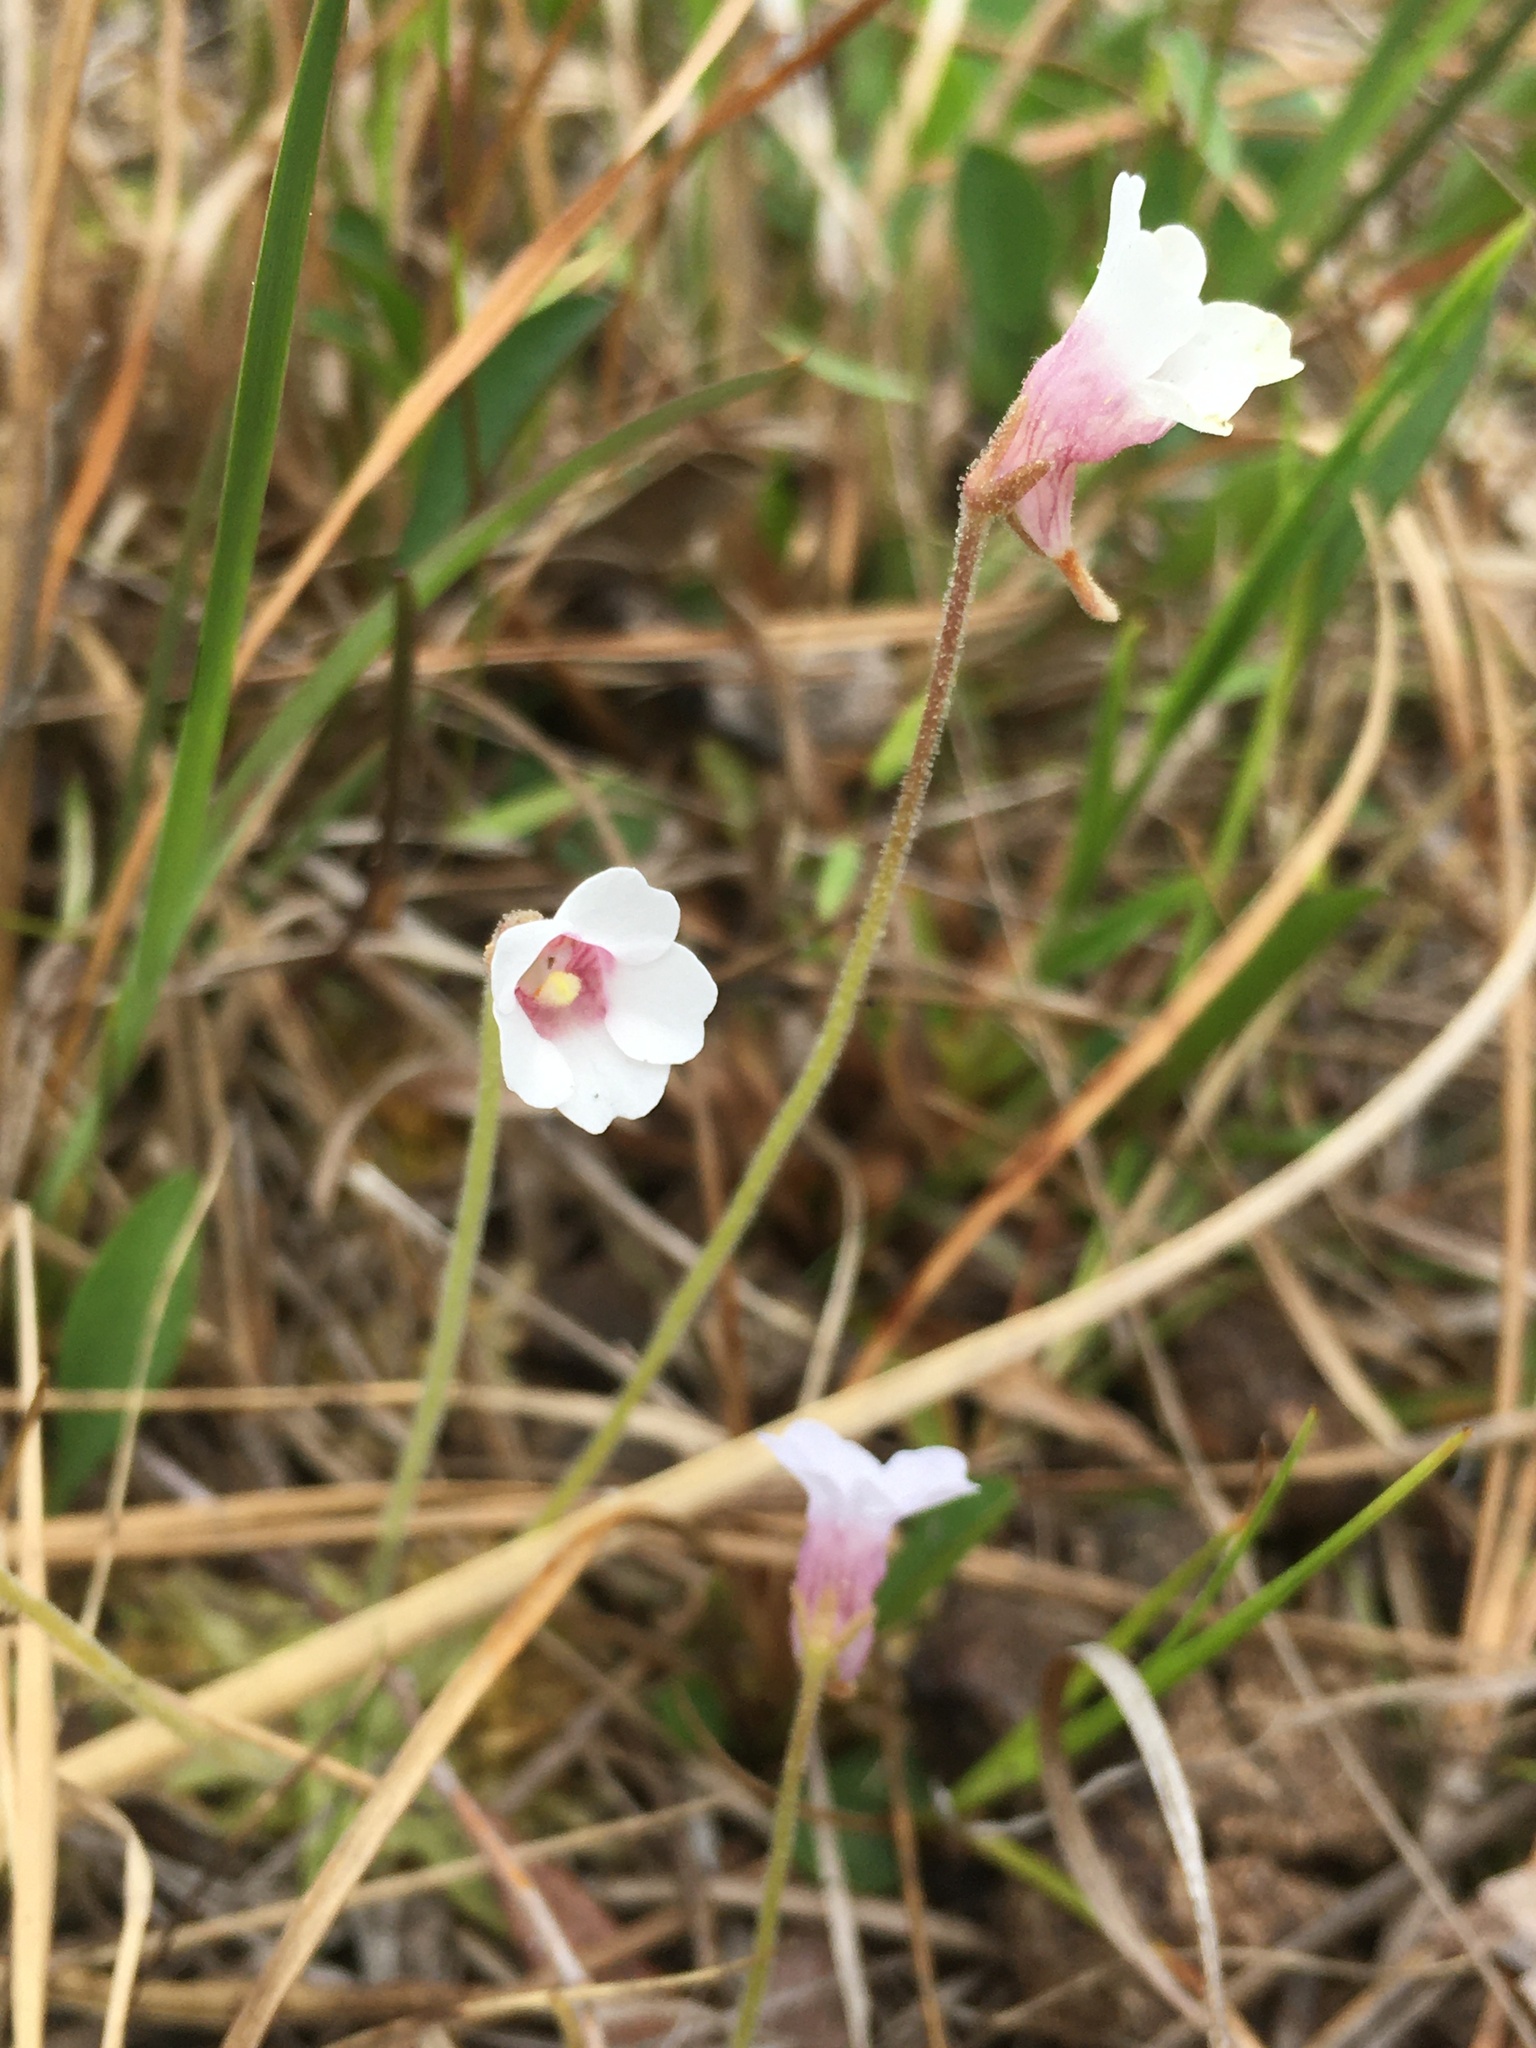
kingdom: Plantae
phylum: Tracheophyta
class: Magnoliopsida
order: Lamiales
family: Lentibulariaceae
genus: Pinguicula
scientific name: Pinguicula pumila
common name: Small butterwort
